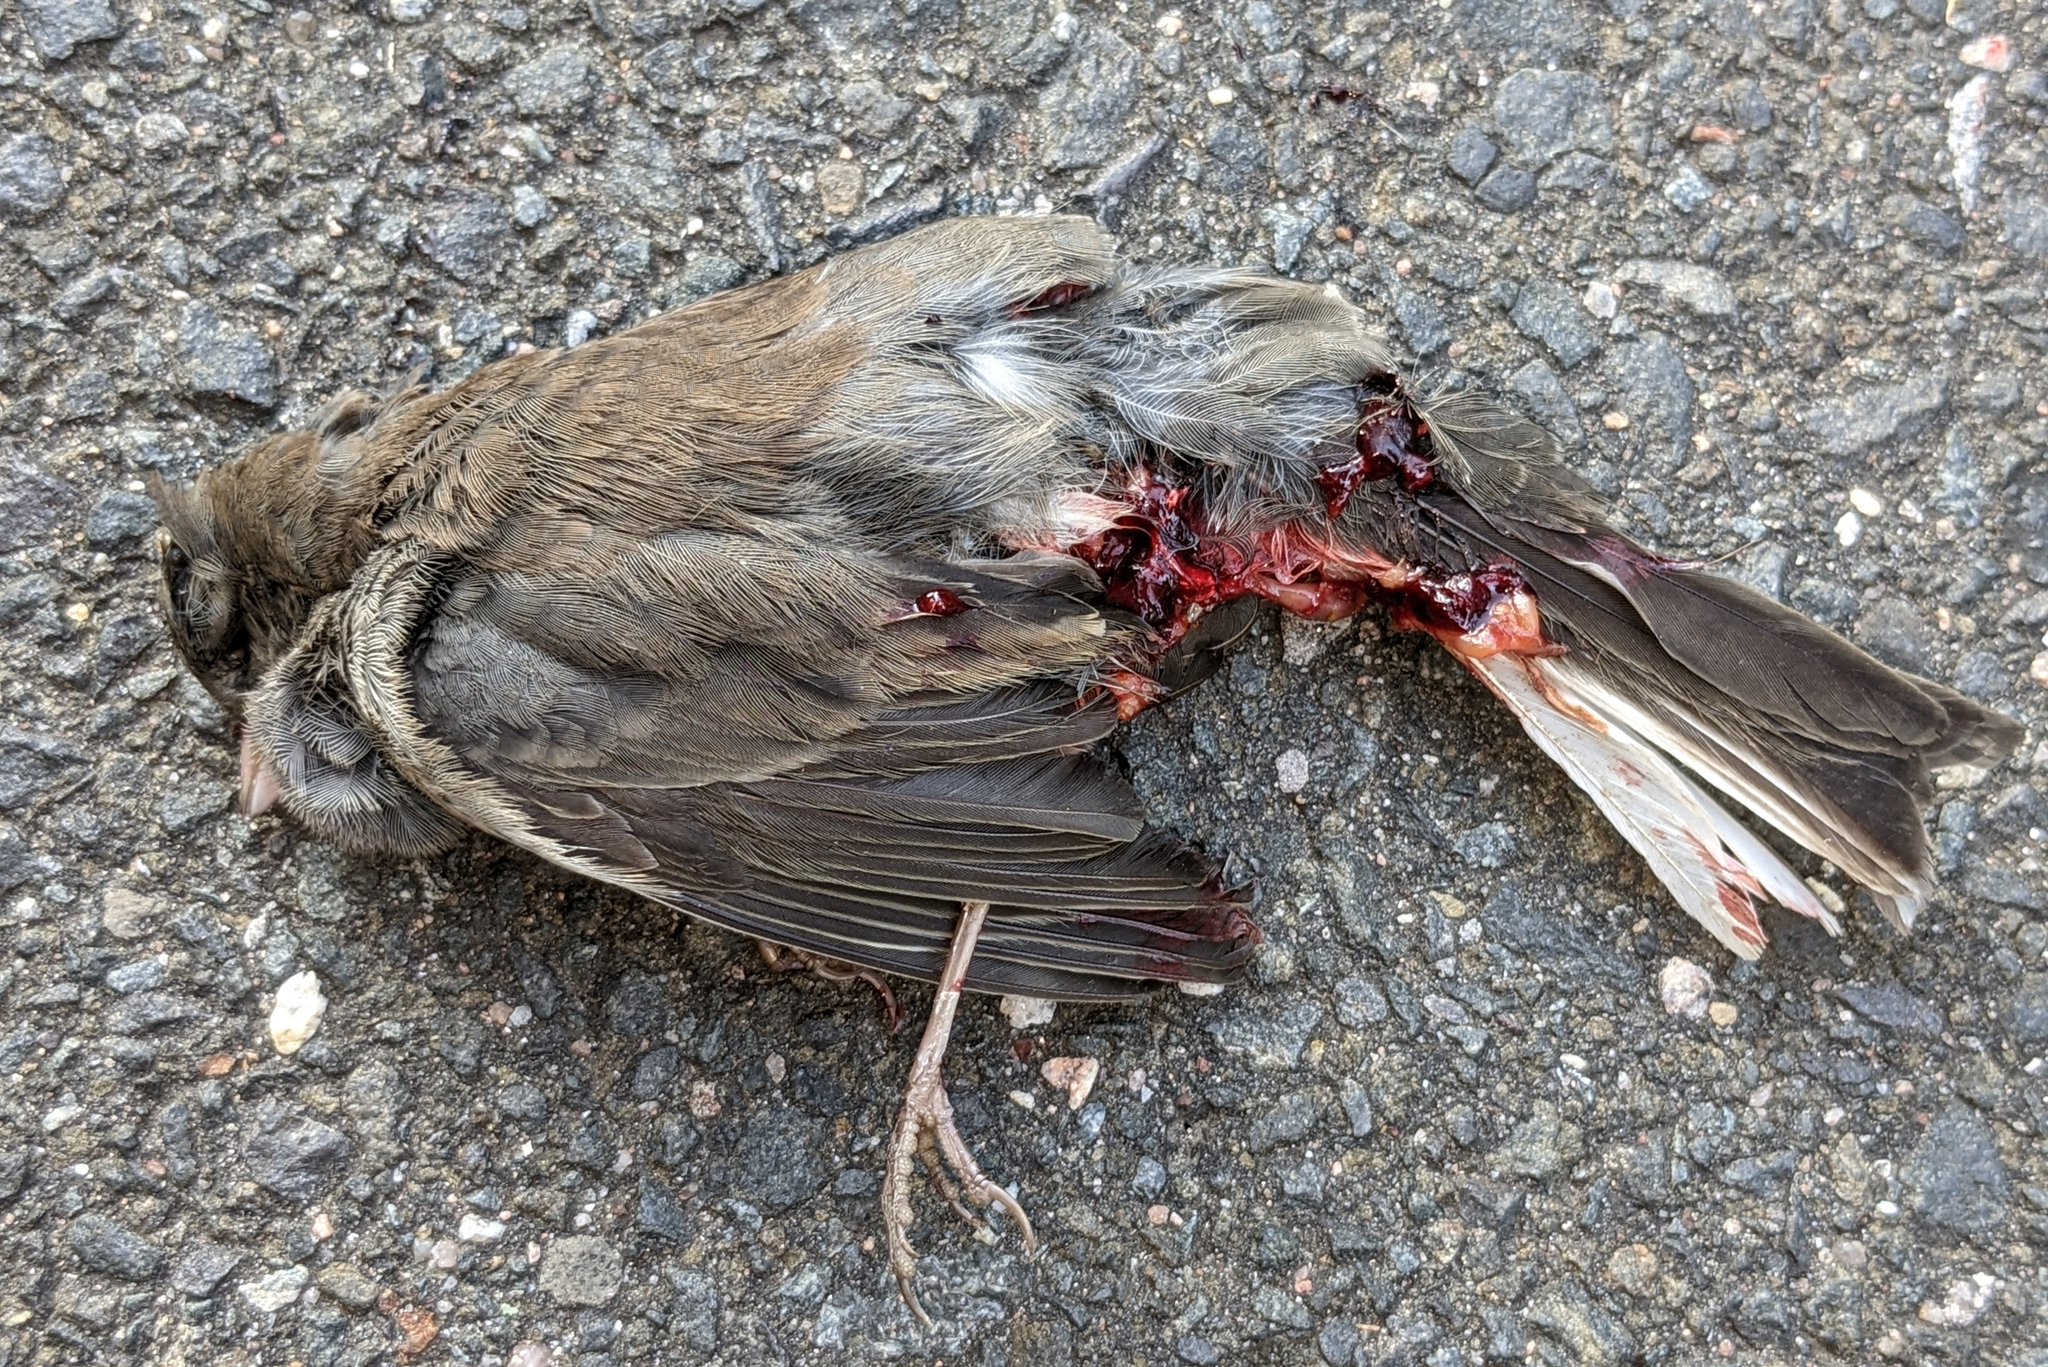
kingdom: Animalia
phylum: Chordata
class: Aves
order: Passeriformes
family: Passerellidae
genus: Junco
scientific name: Junco hyemalis
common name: Dark-eyed junco
